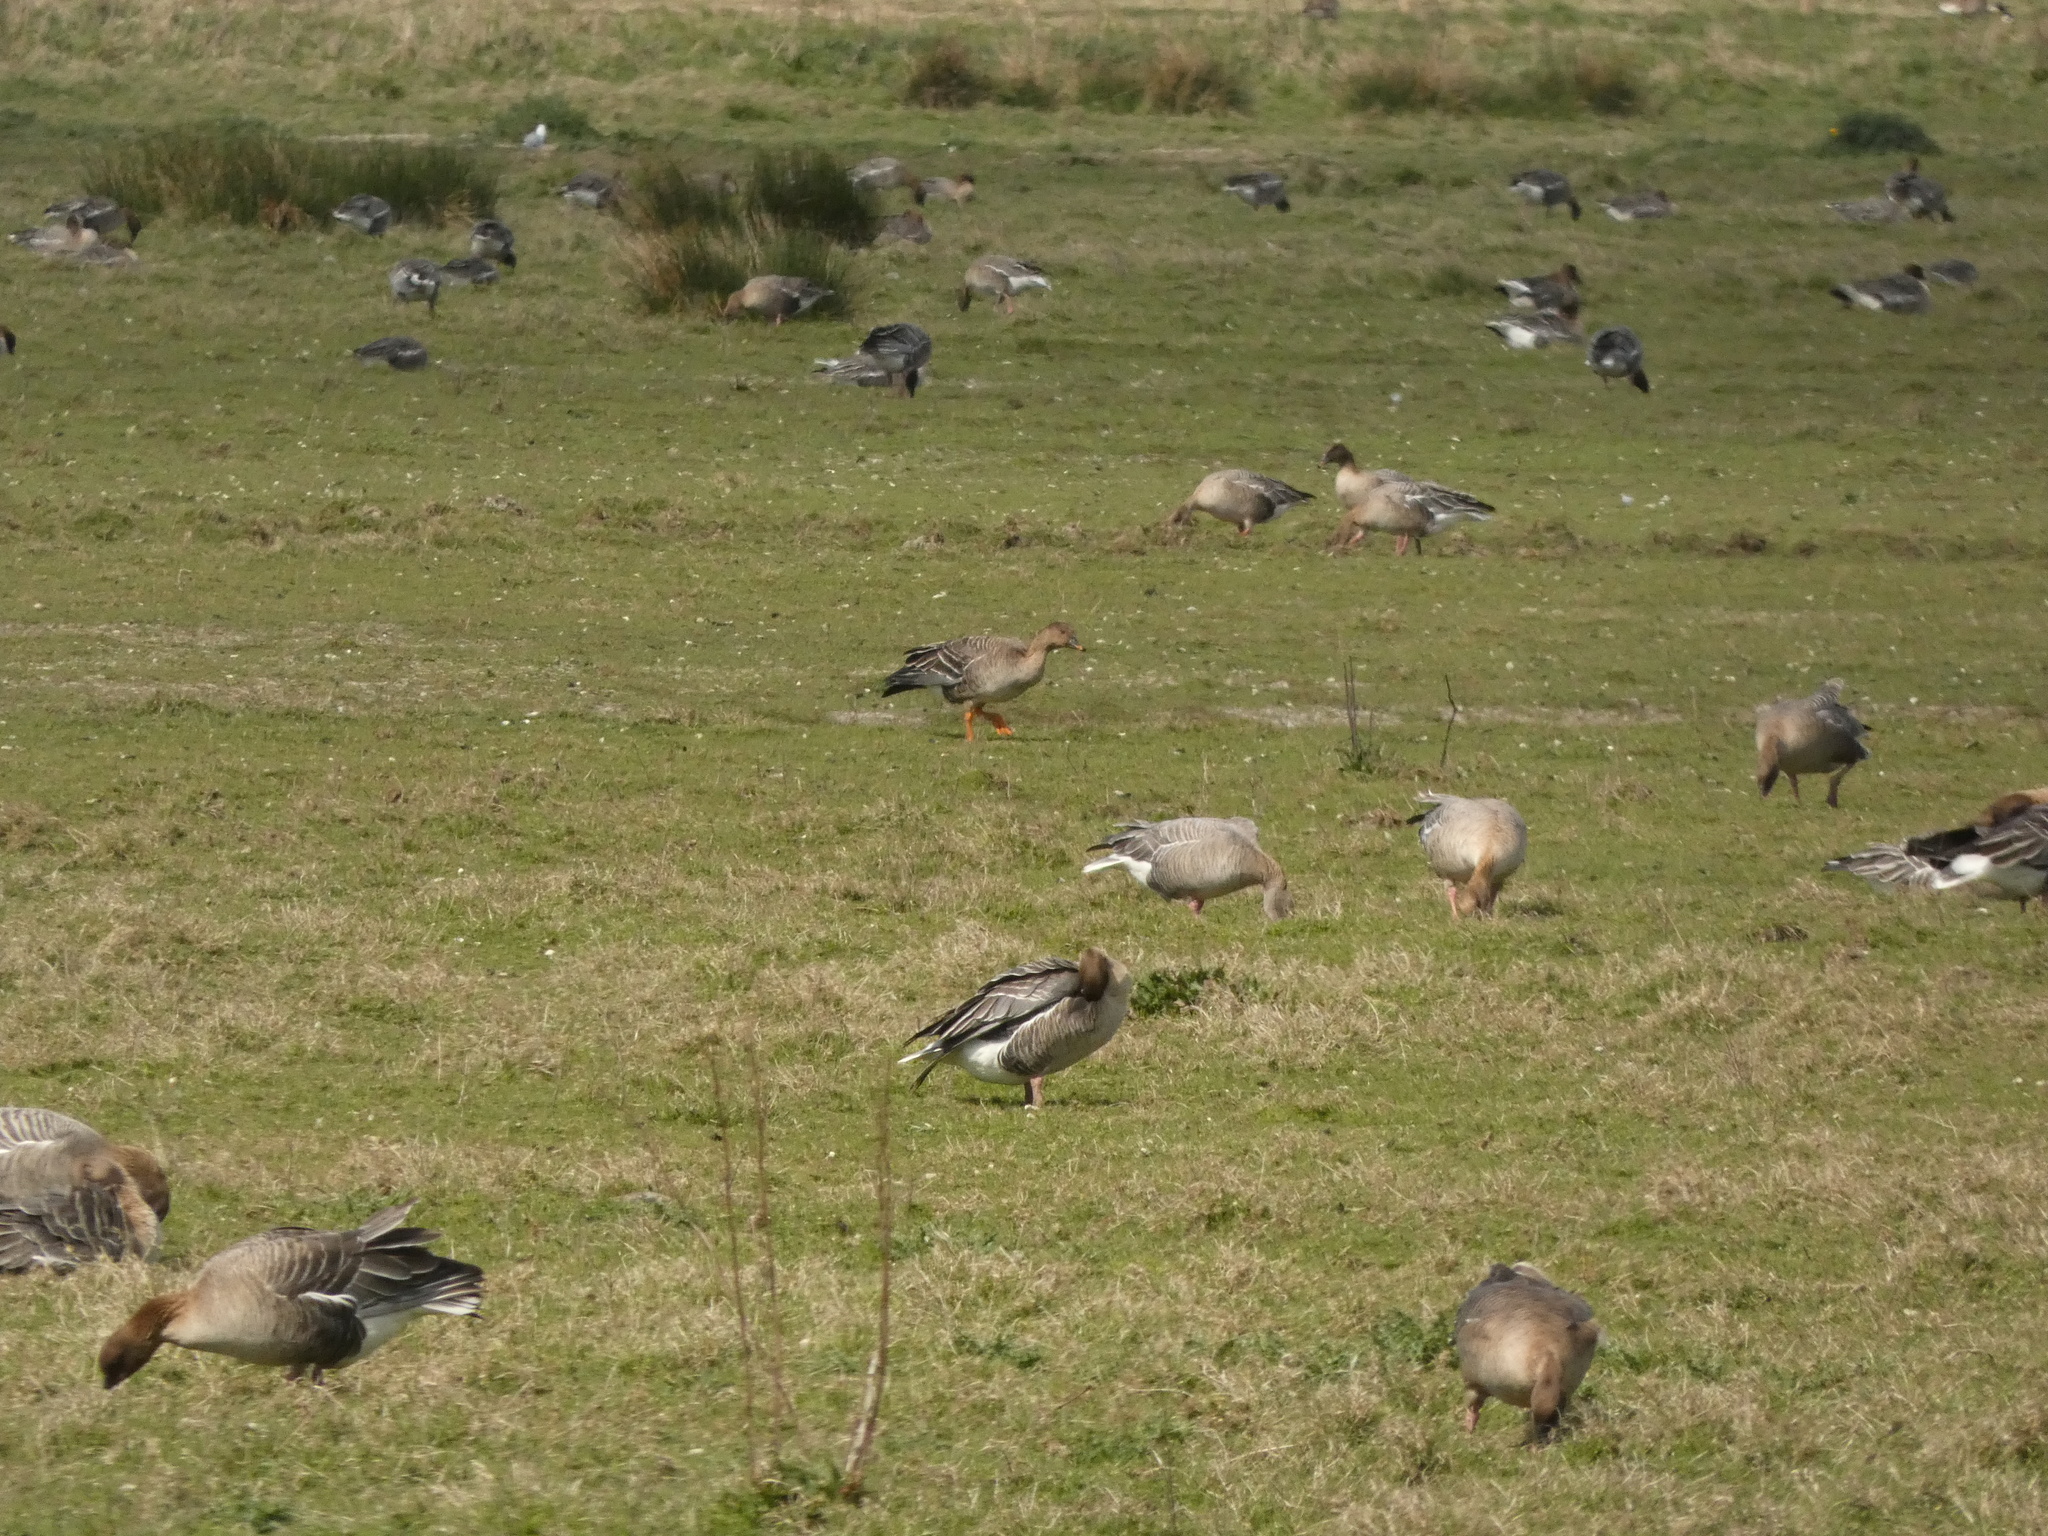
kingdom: Animalia
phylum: Chordata
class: Aves
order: Anseriformes
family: Anatidae
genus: Anser
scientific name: Anser serrirostris
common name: Tundra bean goose
